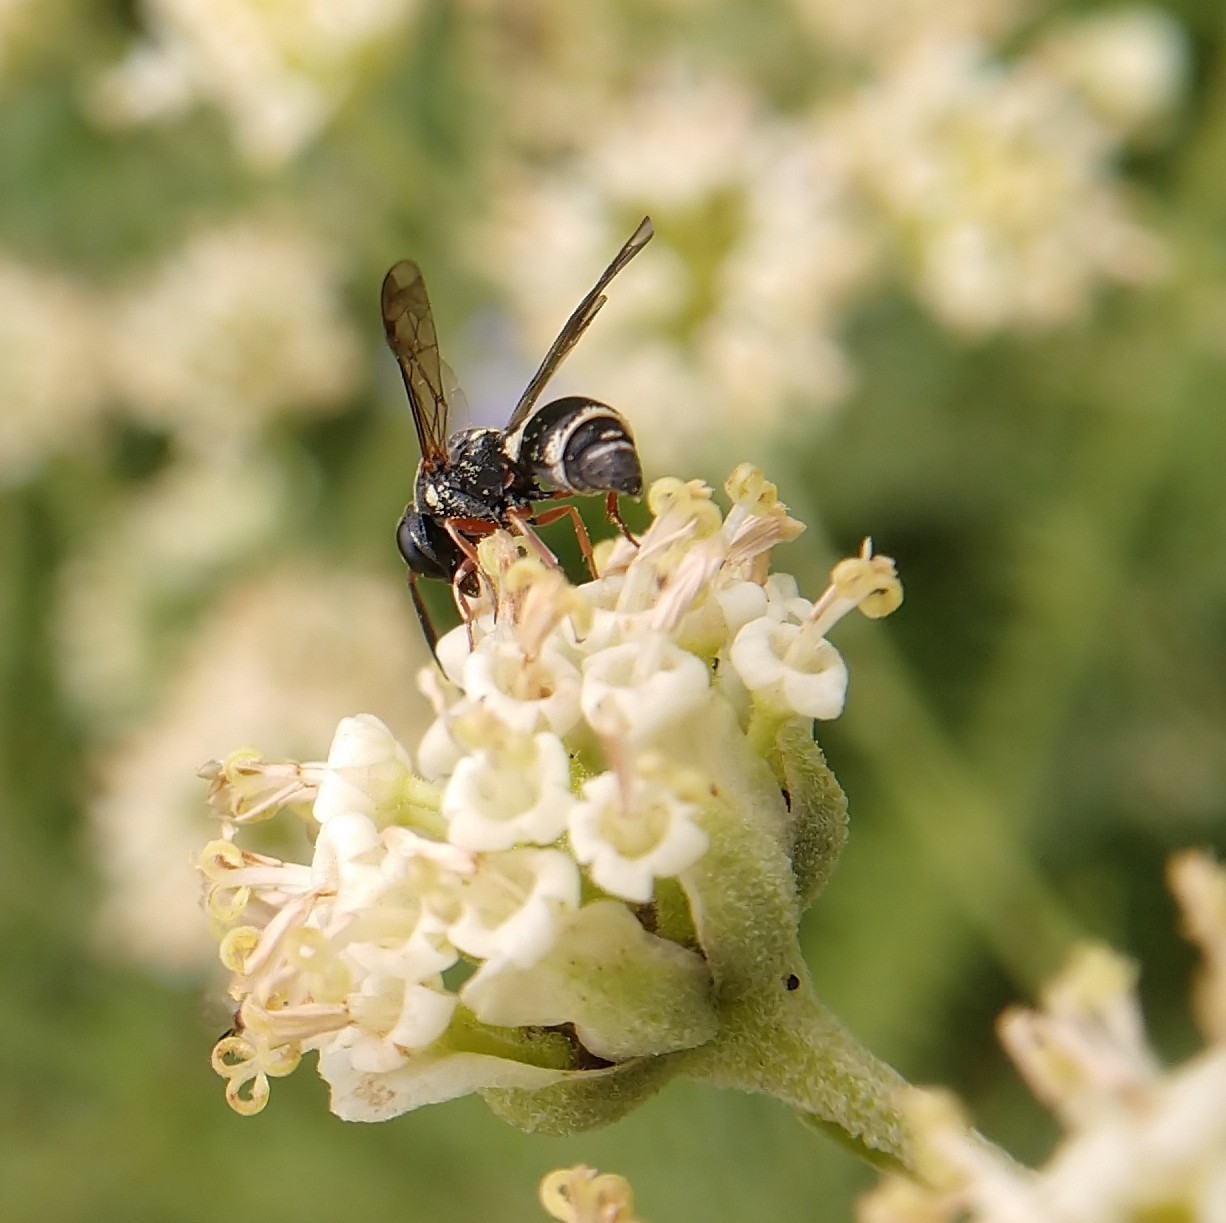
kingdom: Animalia
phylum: Arthropoda
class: Insecta
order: Hymenoptera
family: Eumenidae
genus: Parancistrocerus
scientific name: Parancistrocerus minimoferus
